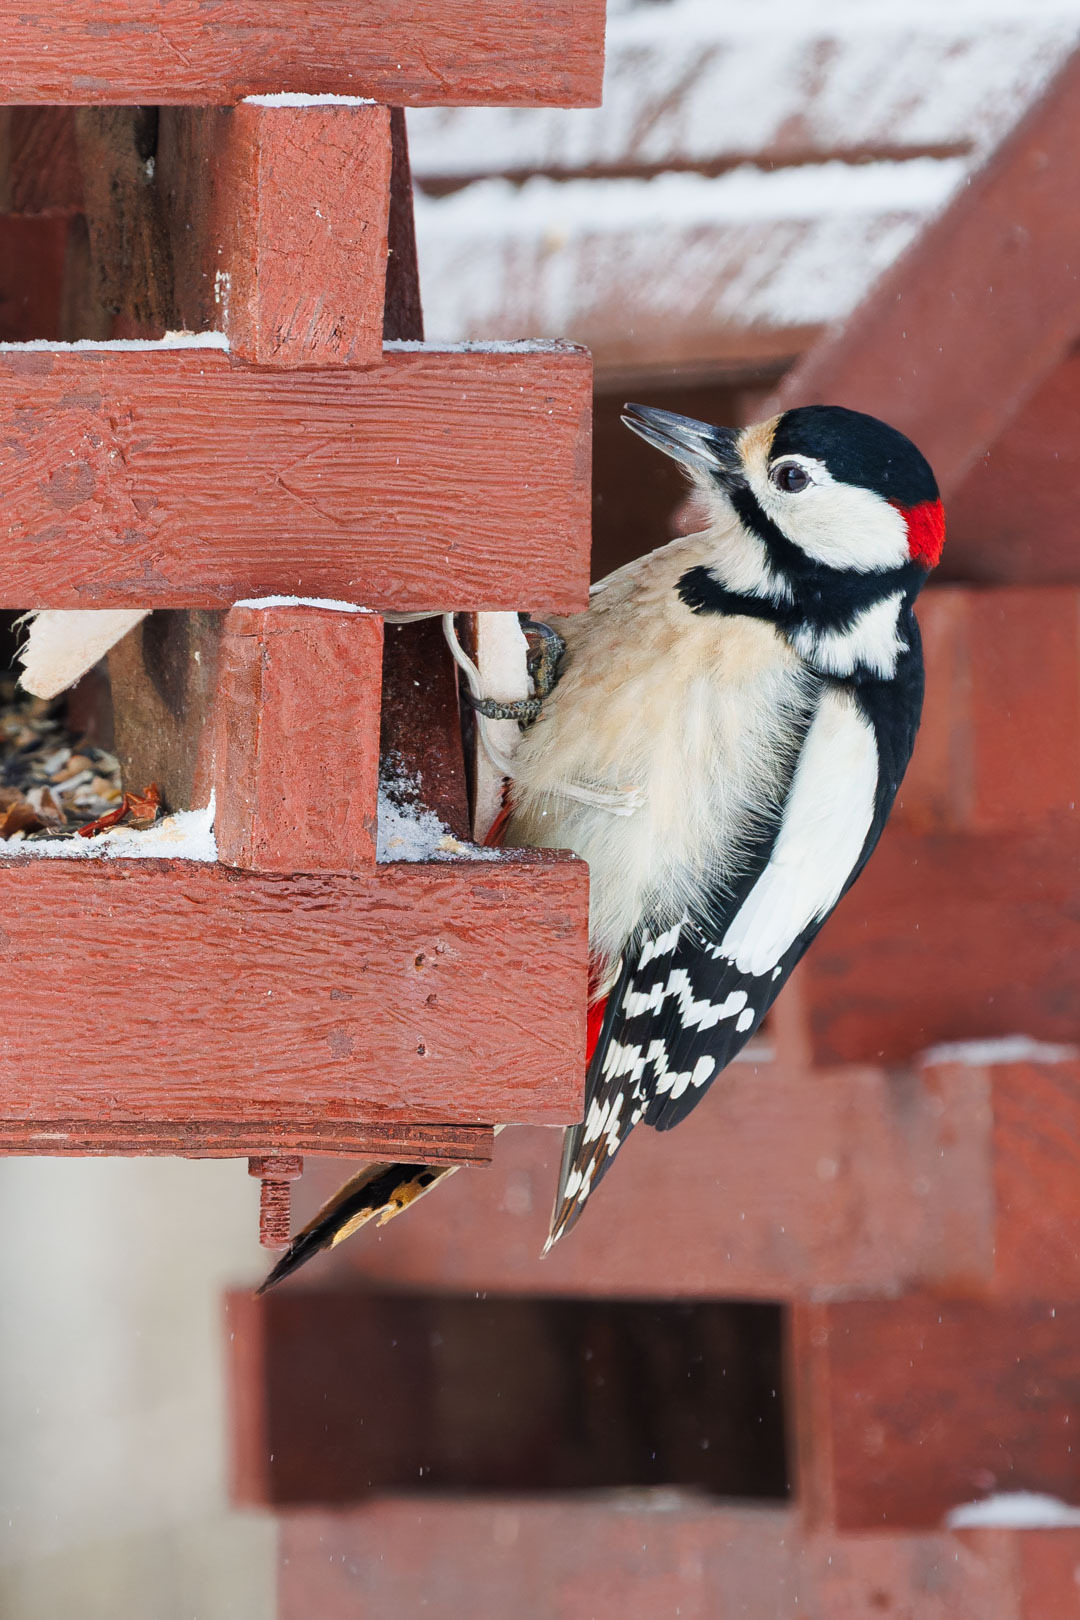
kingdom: Animalia
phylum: Chordata
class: Aves
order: Piciformes
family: Picidae
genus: Dendrocopos
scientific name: Dendrocopos major
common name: Great spotted woodpecker
